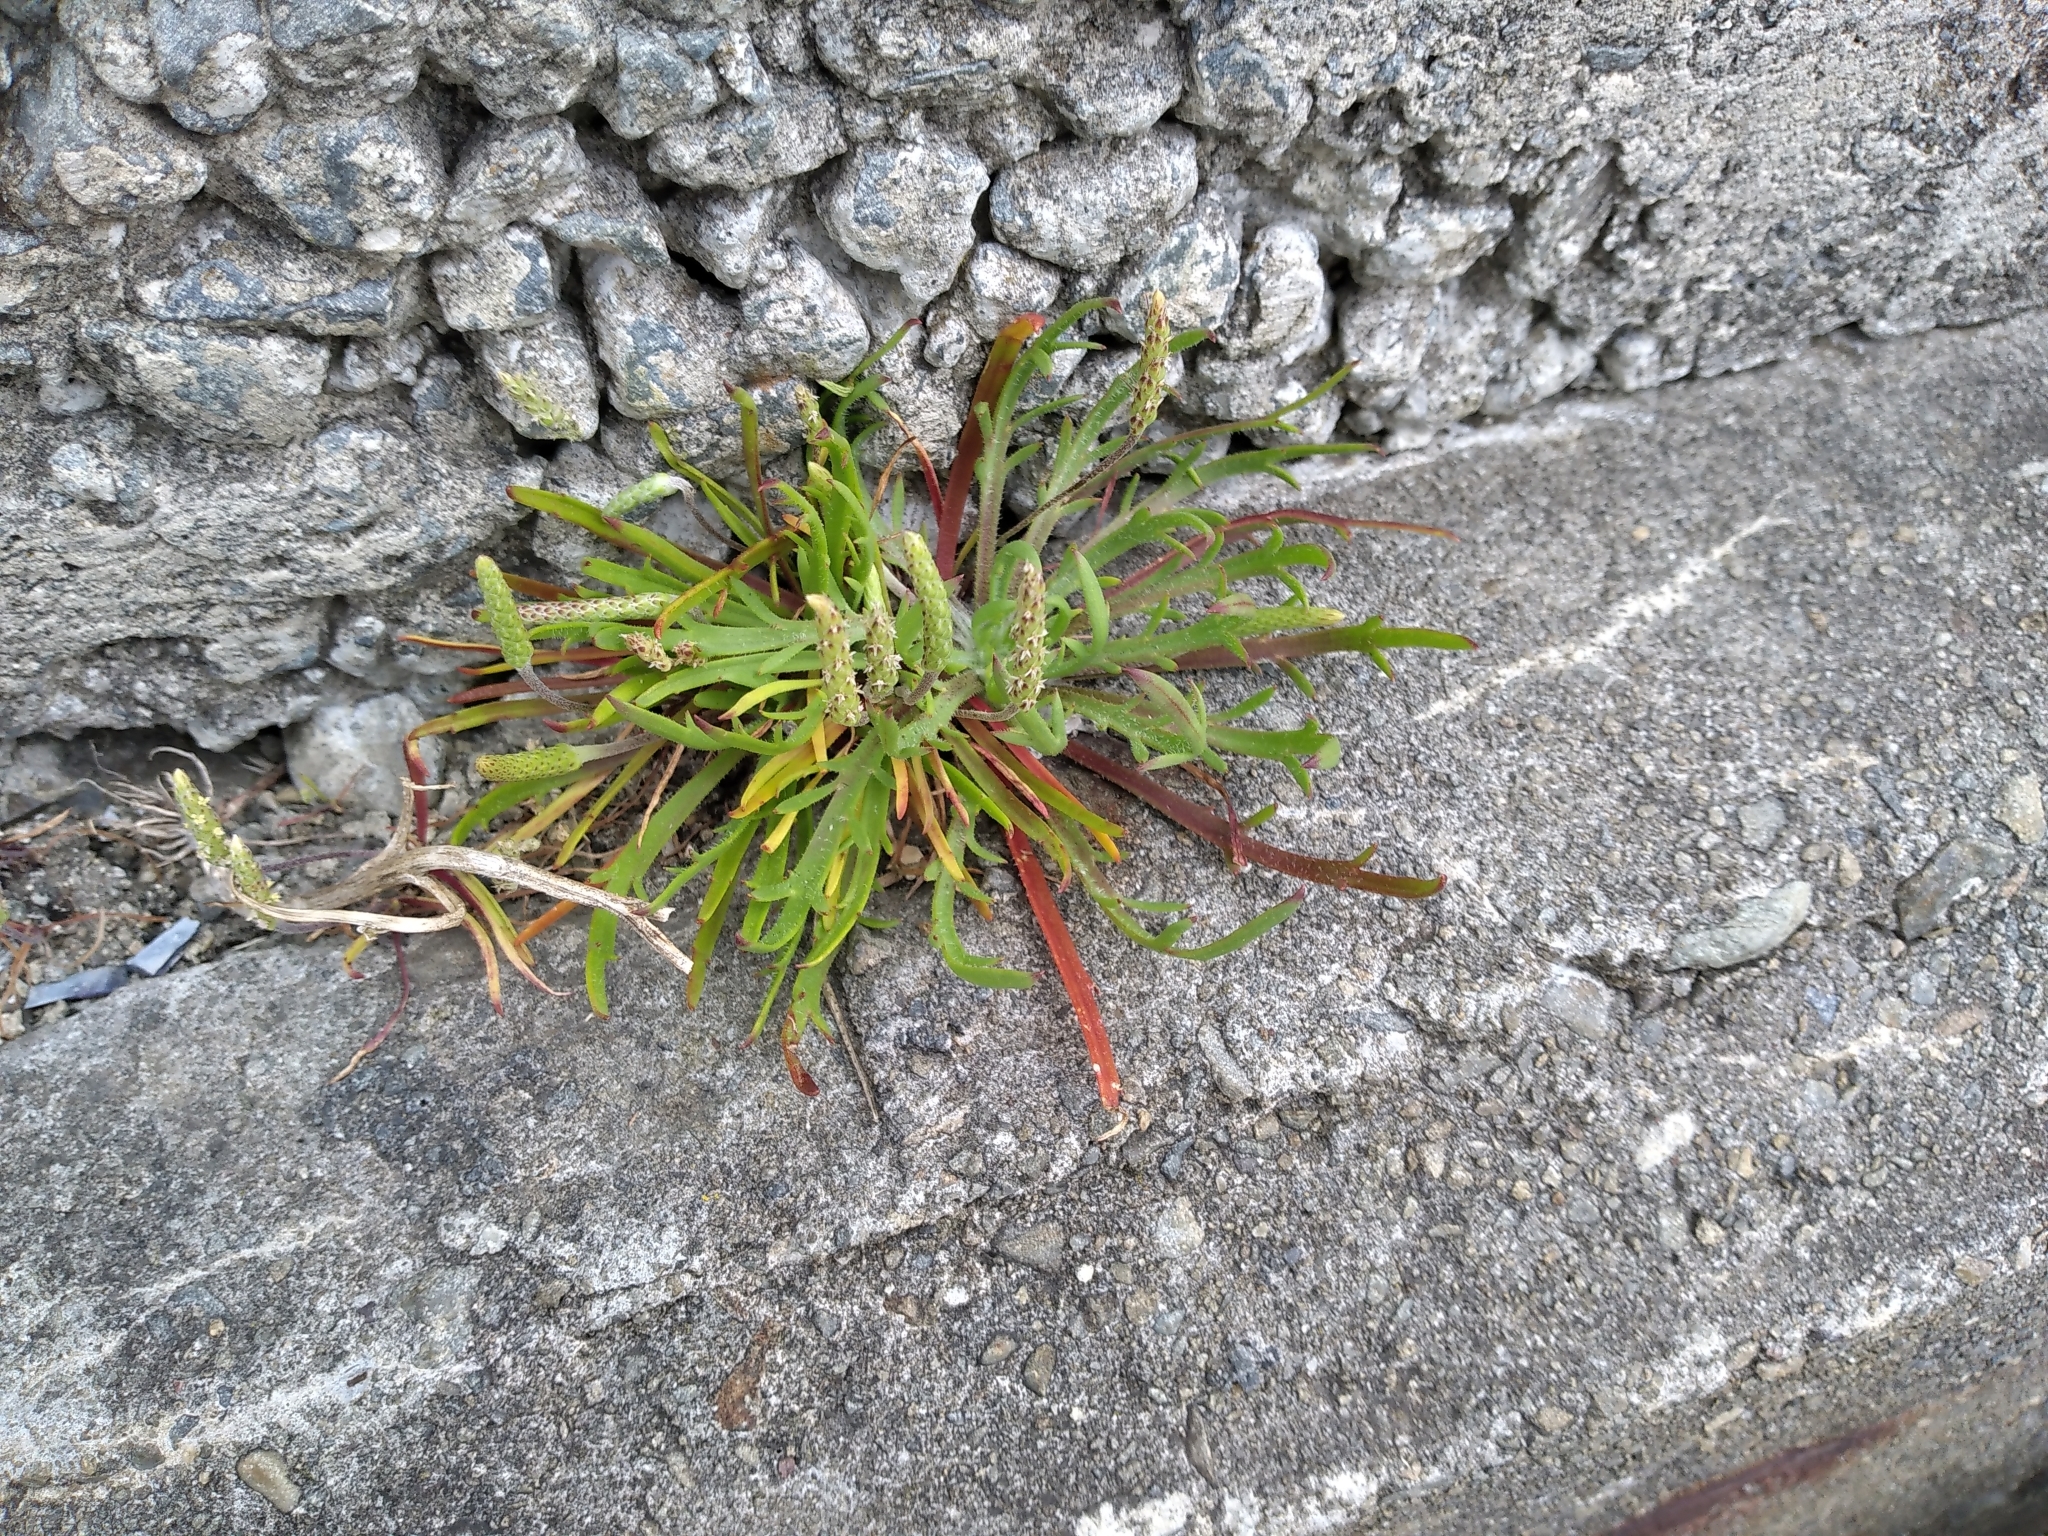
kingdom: Plantae
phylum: Tracheophyta
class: Magnoliopsida
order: Lamiales
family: Plantaginaceae
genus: Plantago
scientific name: Plantago coronopus
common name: Buck's-horn plantain
